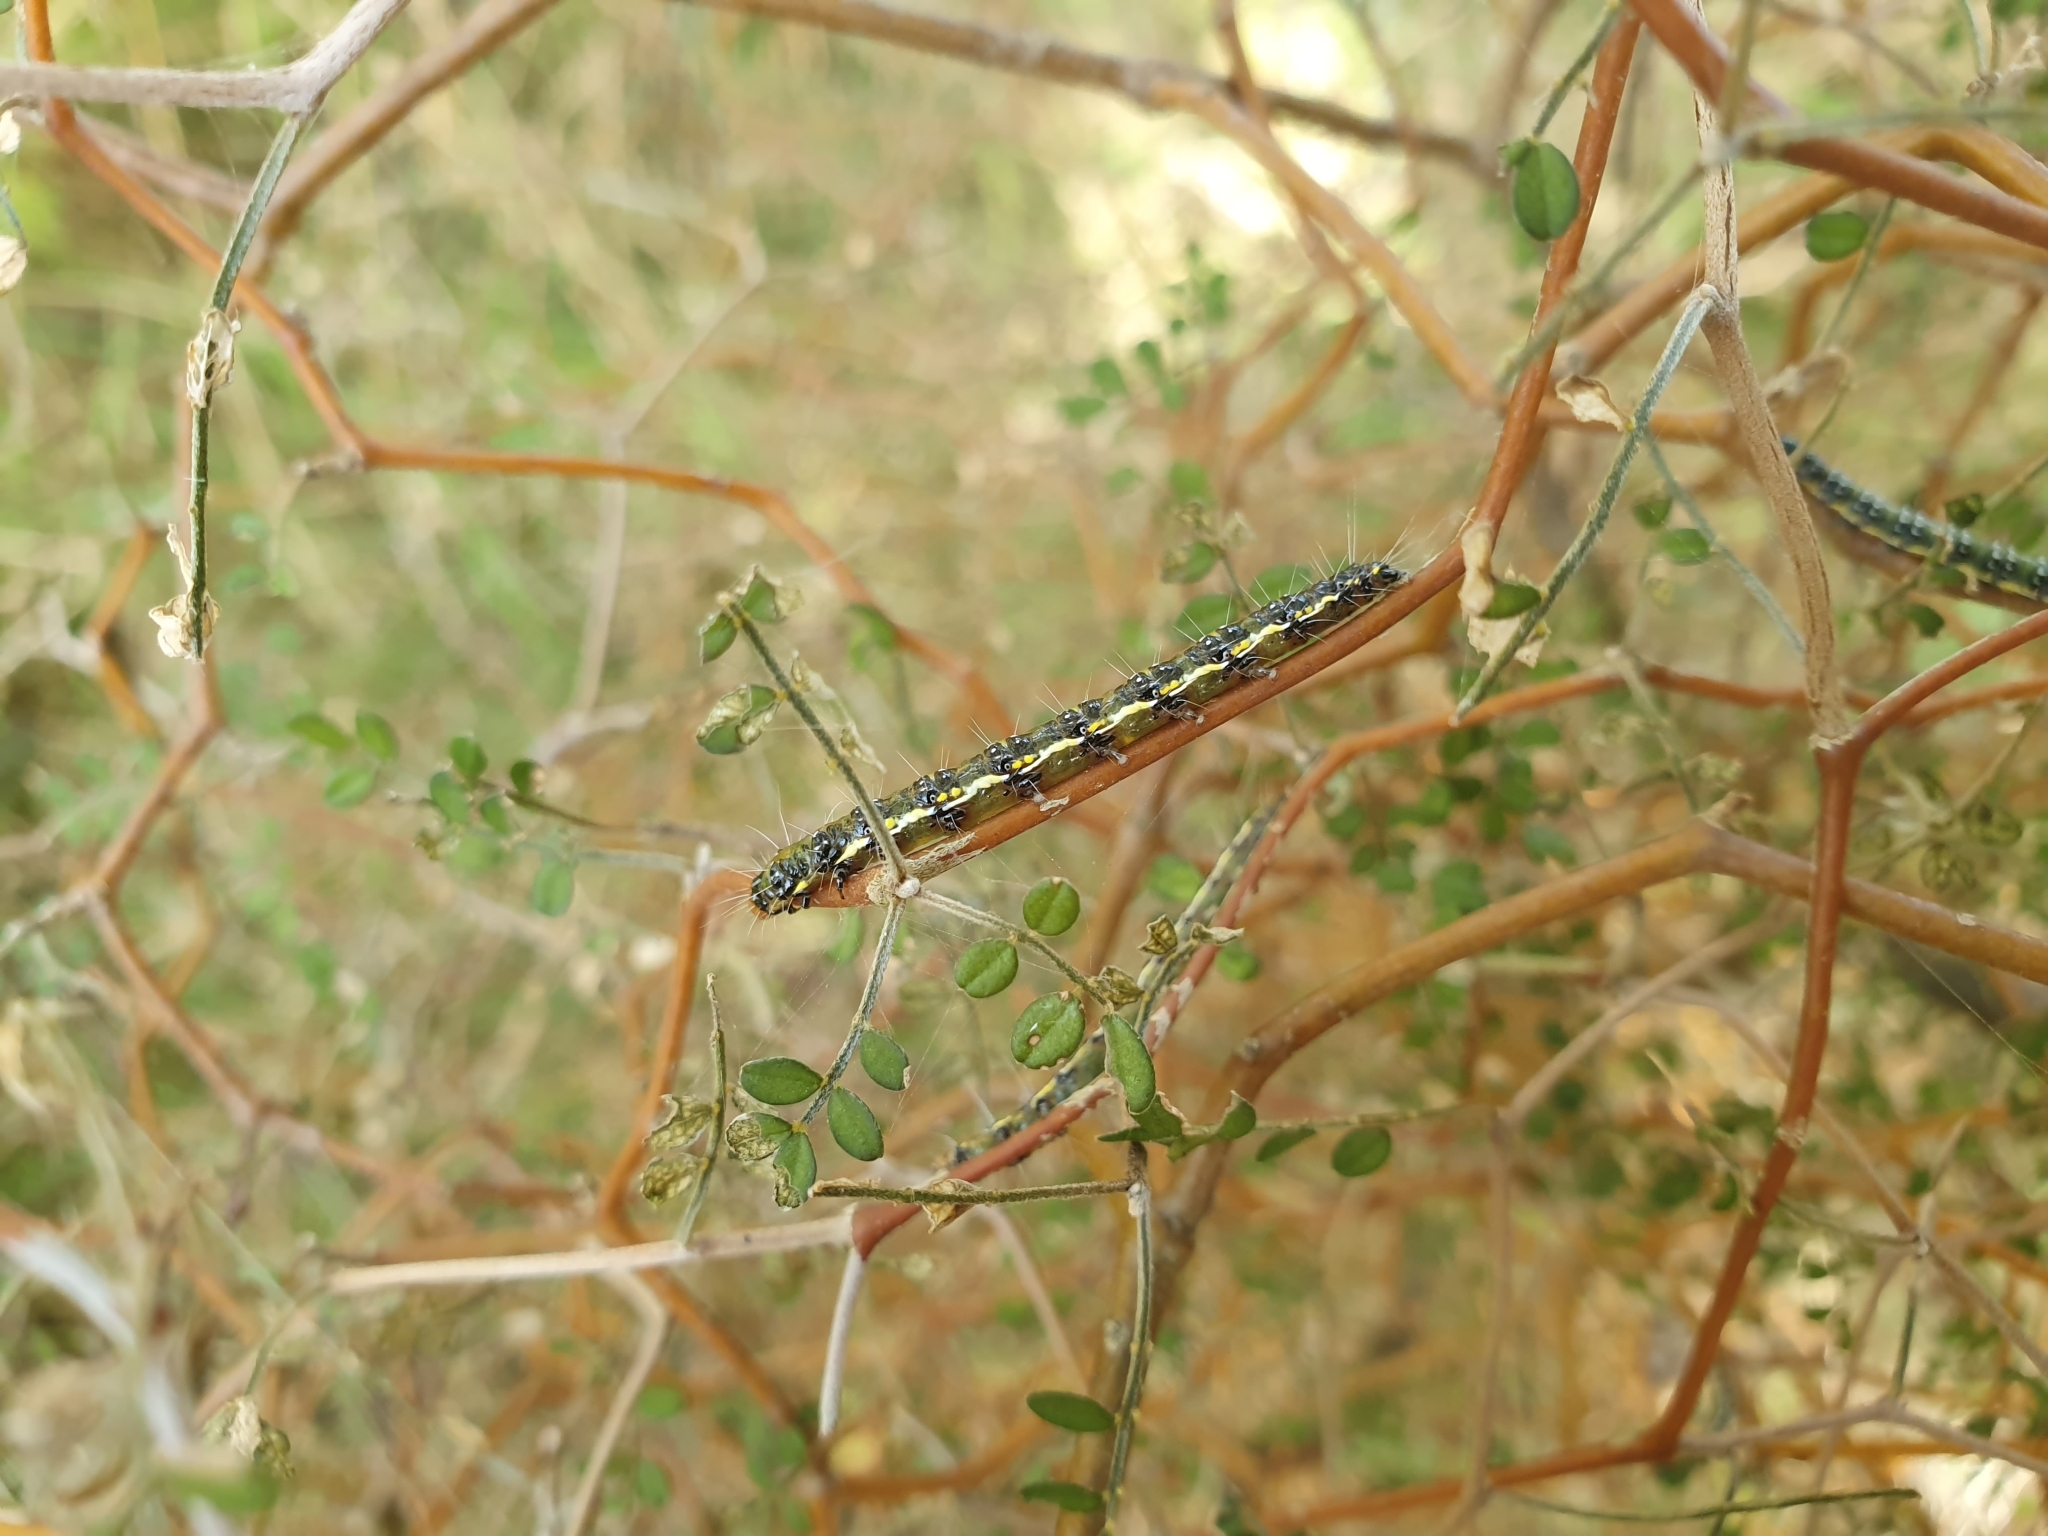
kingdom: Animalia
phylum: Arthropoda
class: Insecta
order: Lepidoptera
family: Crambidae
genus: Uresiphita
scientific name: Uresiphita
